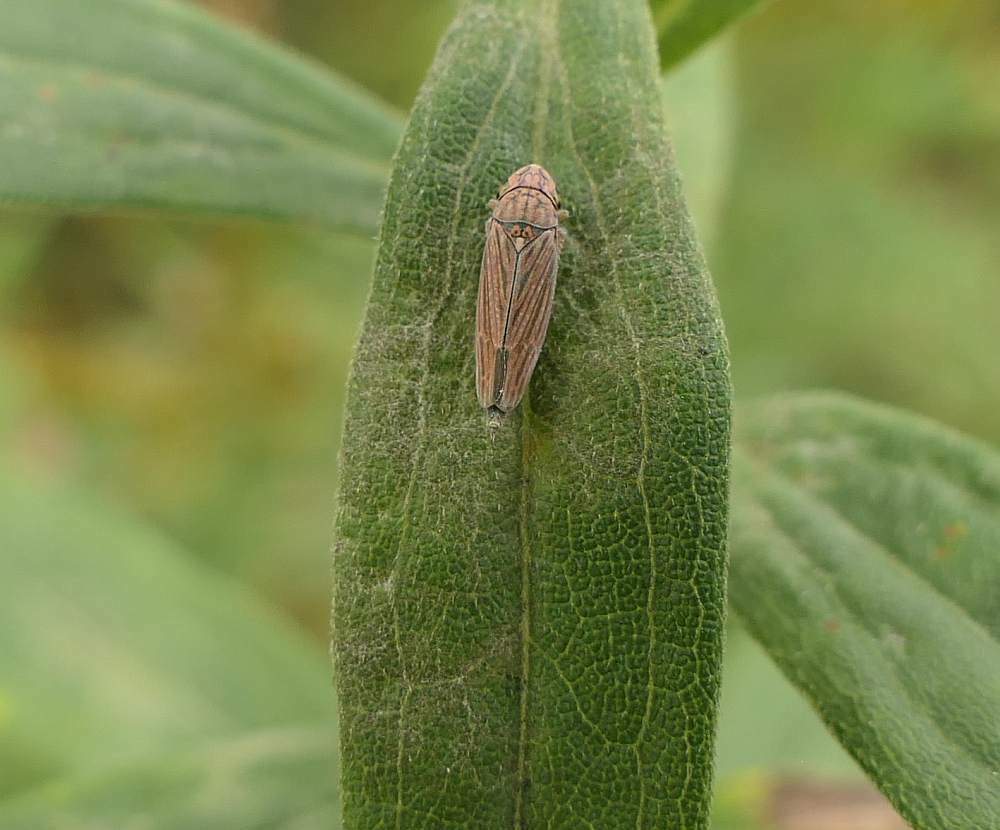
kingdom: Animalia
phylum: Arthropoda
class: Insecta
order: Hemiptera
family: Cicadellidae
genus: Neokolla
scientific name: Neokolla hieroglyphica
